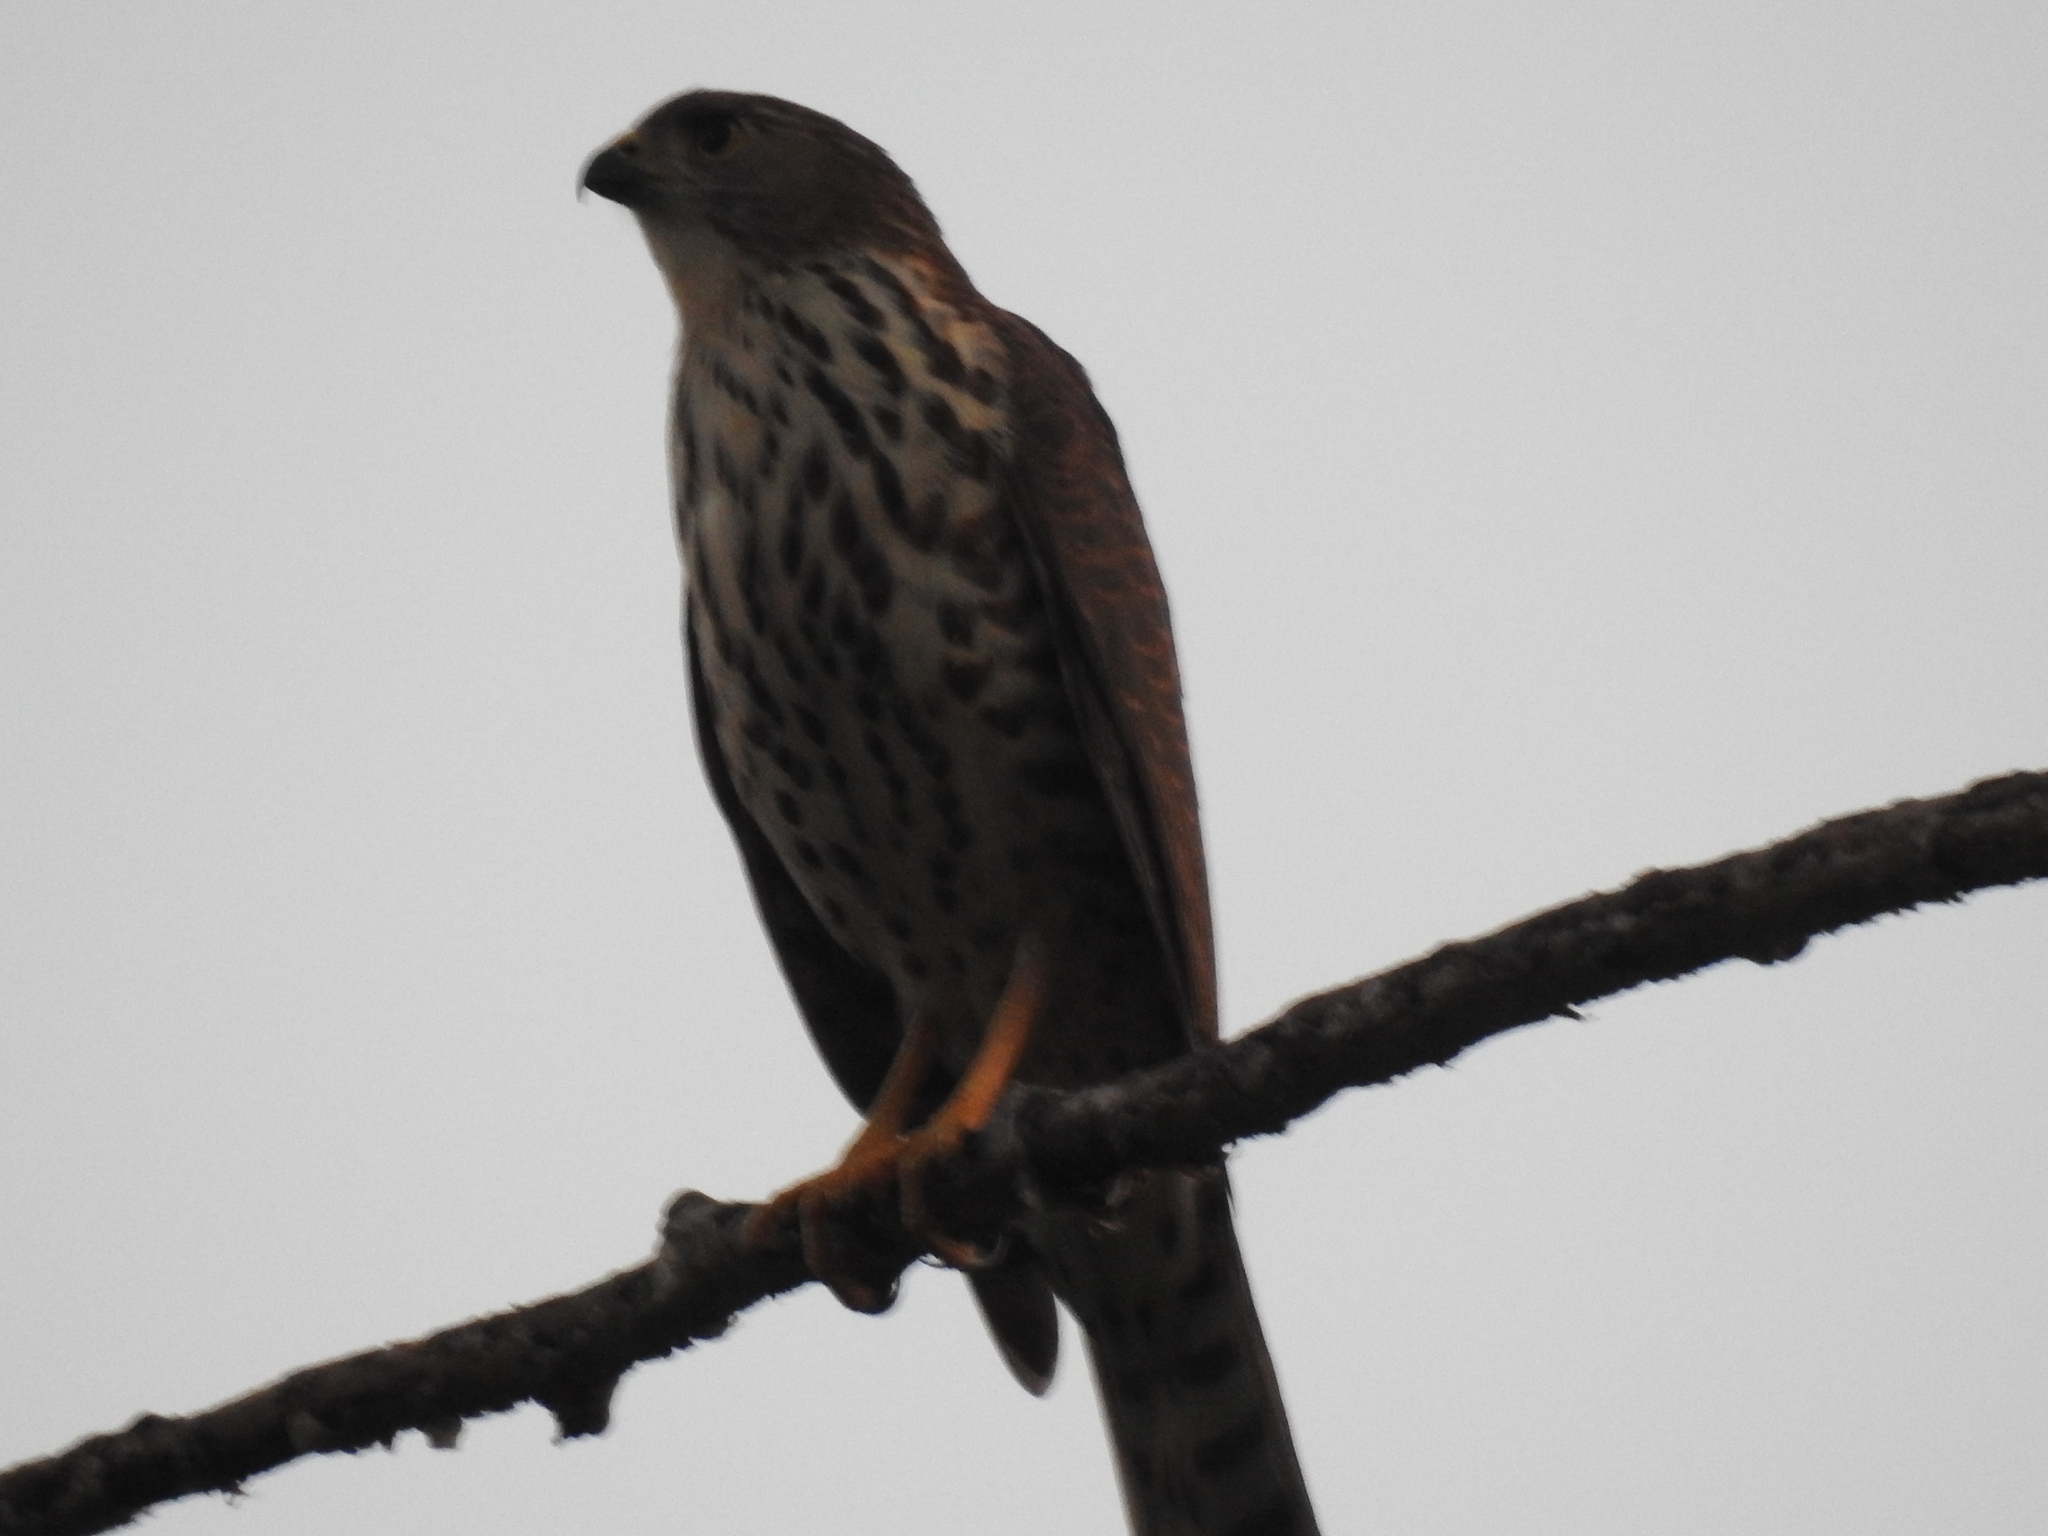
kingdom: Animalia
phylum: Chordata
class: Aves
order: Accipitriformes
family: Accipitridae
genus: Accipiter
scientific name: Accipiter minullus
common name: Little sparrowhawk
